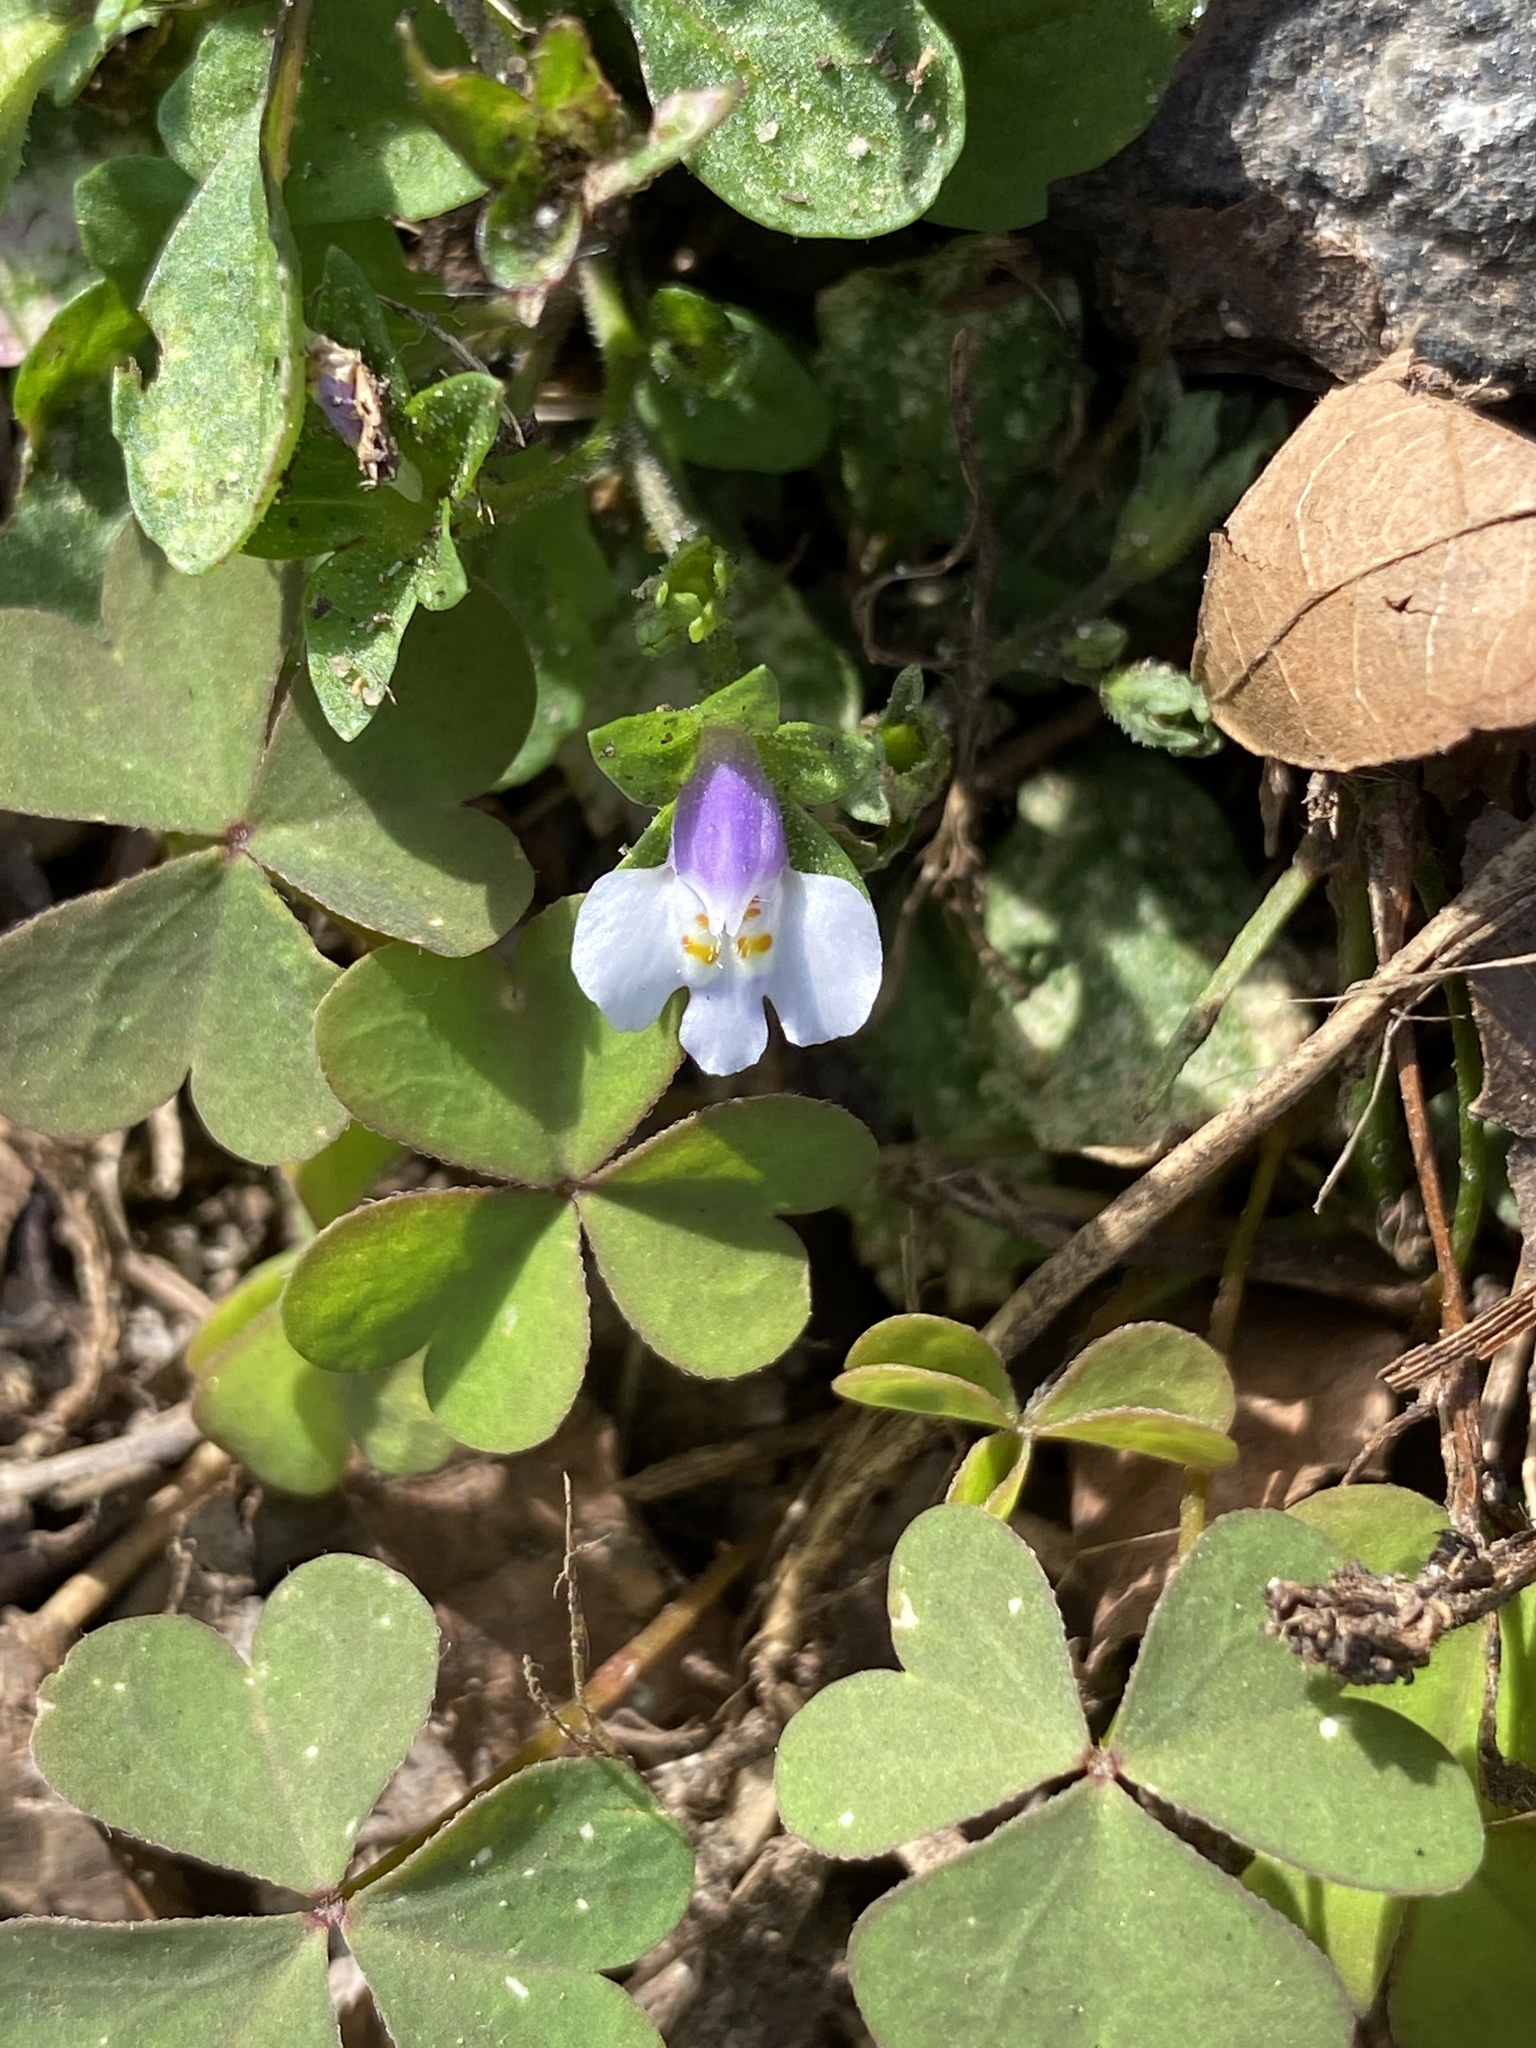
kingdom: Plantae
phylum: Tracheophyta
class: Magnoliopsida
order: Lamiales
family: Mazaceae
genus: Mazus
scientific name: Mazus pumilus
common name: Japanese mazus
